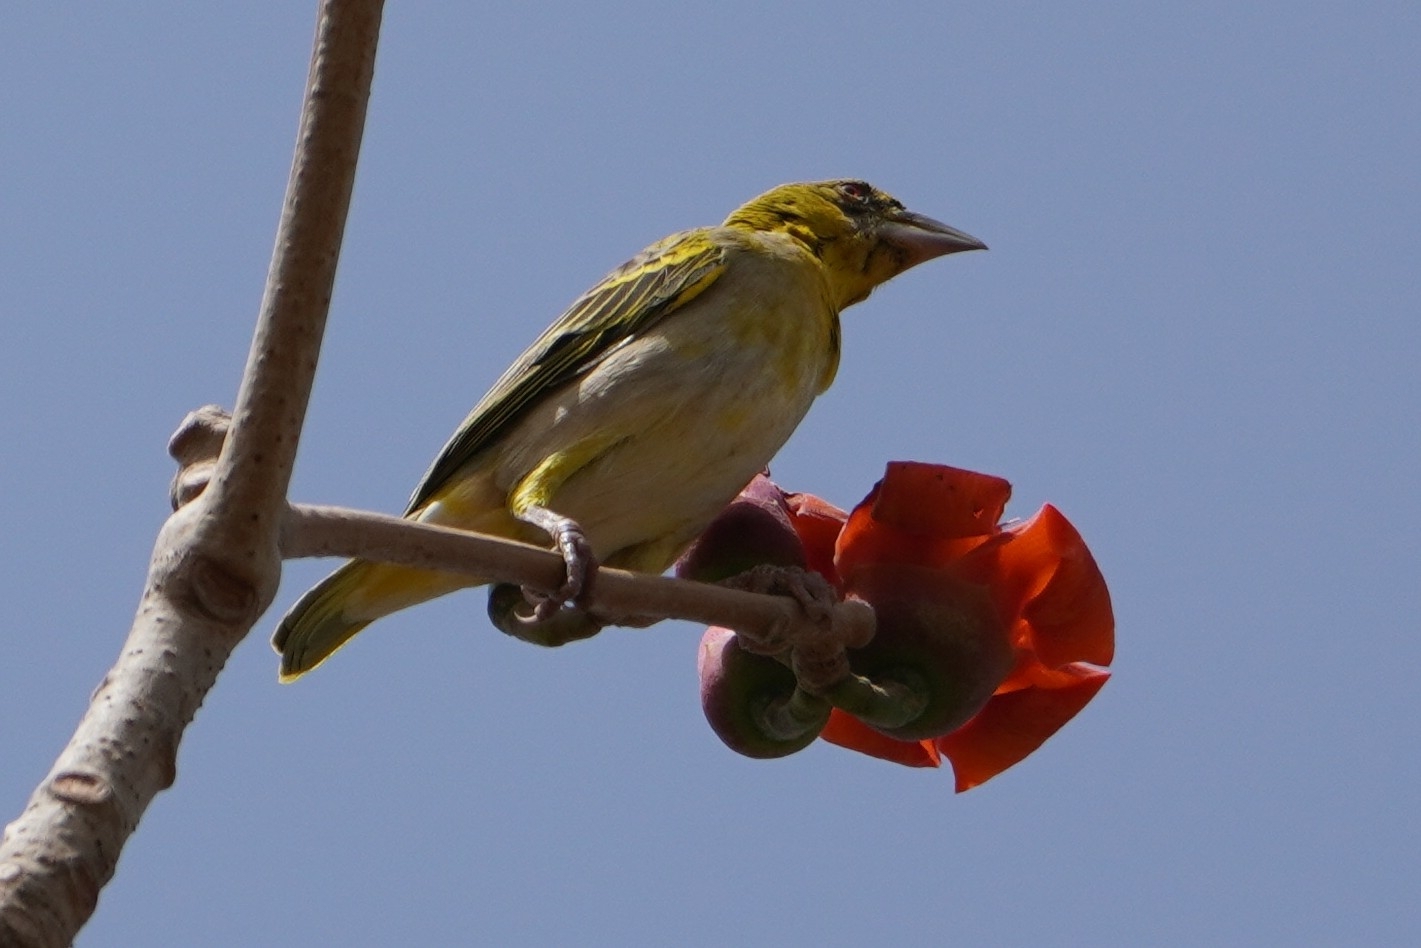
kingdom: Animalia
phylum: Chordata
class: Aves
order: Passeriformes
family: Ploceidae
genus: Ploceus
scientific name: Ploceus cucullatus
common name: Village weaver
